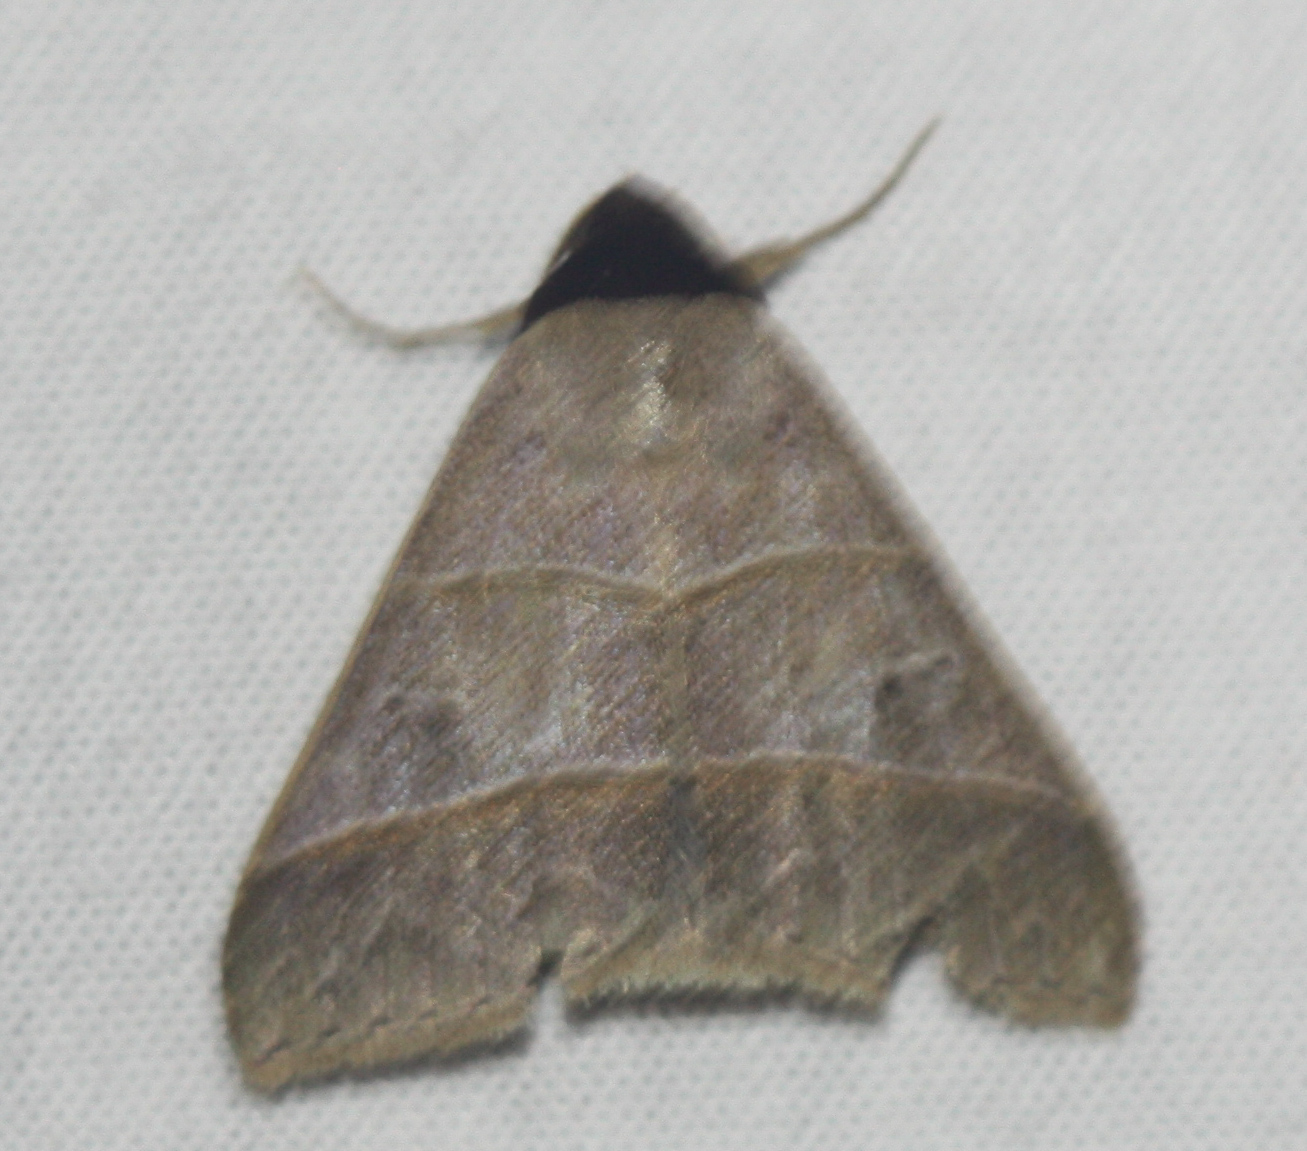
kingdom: Animalia
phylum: Arthropoda
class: Insecta
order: Lepidoptera
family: Erebidae
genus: Baniana
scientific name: Baniana ostia
